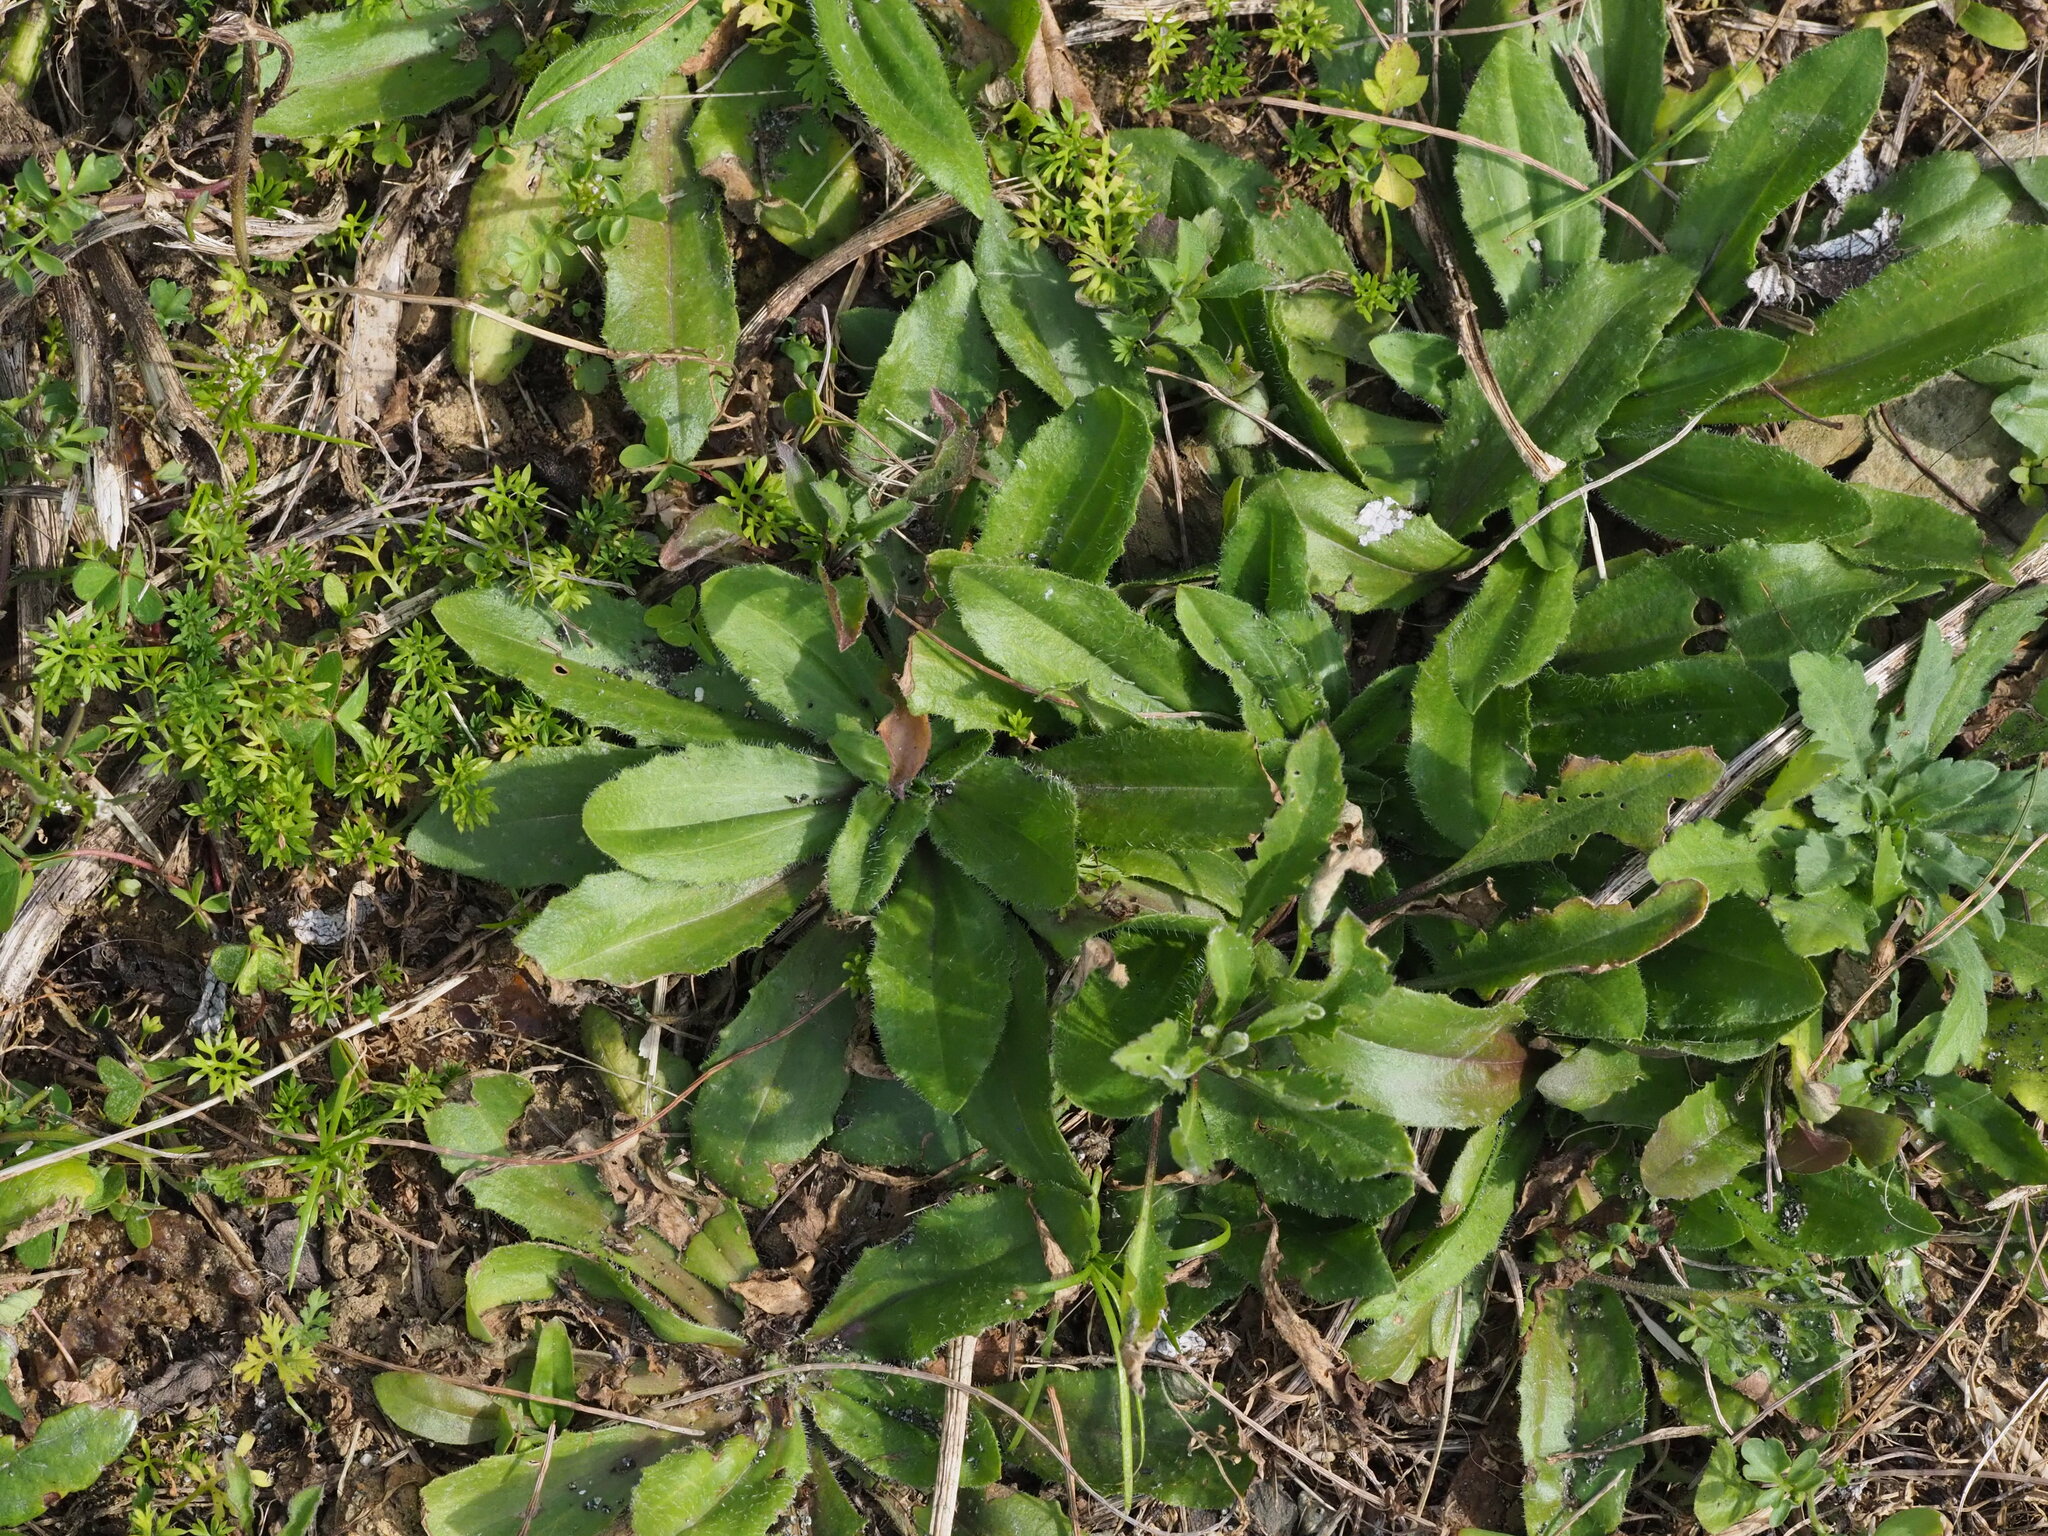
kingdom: Plantae
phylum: Tracheophyta
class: Magnoliopsida
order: Lamiales
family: Plantaginaceae
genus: Plantago
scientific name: Plantago virginica
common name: Hoary plantain
